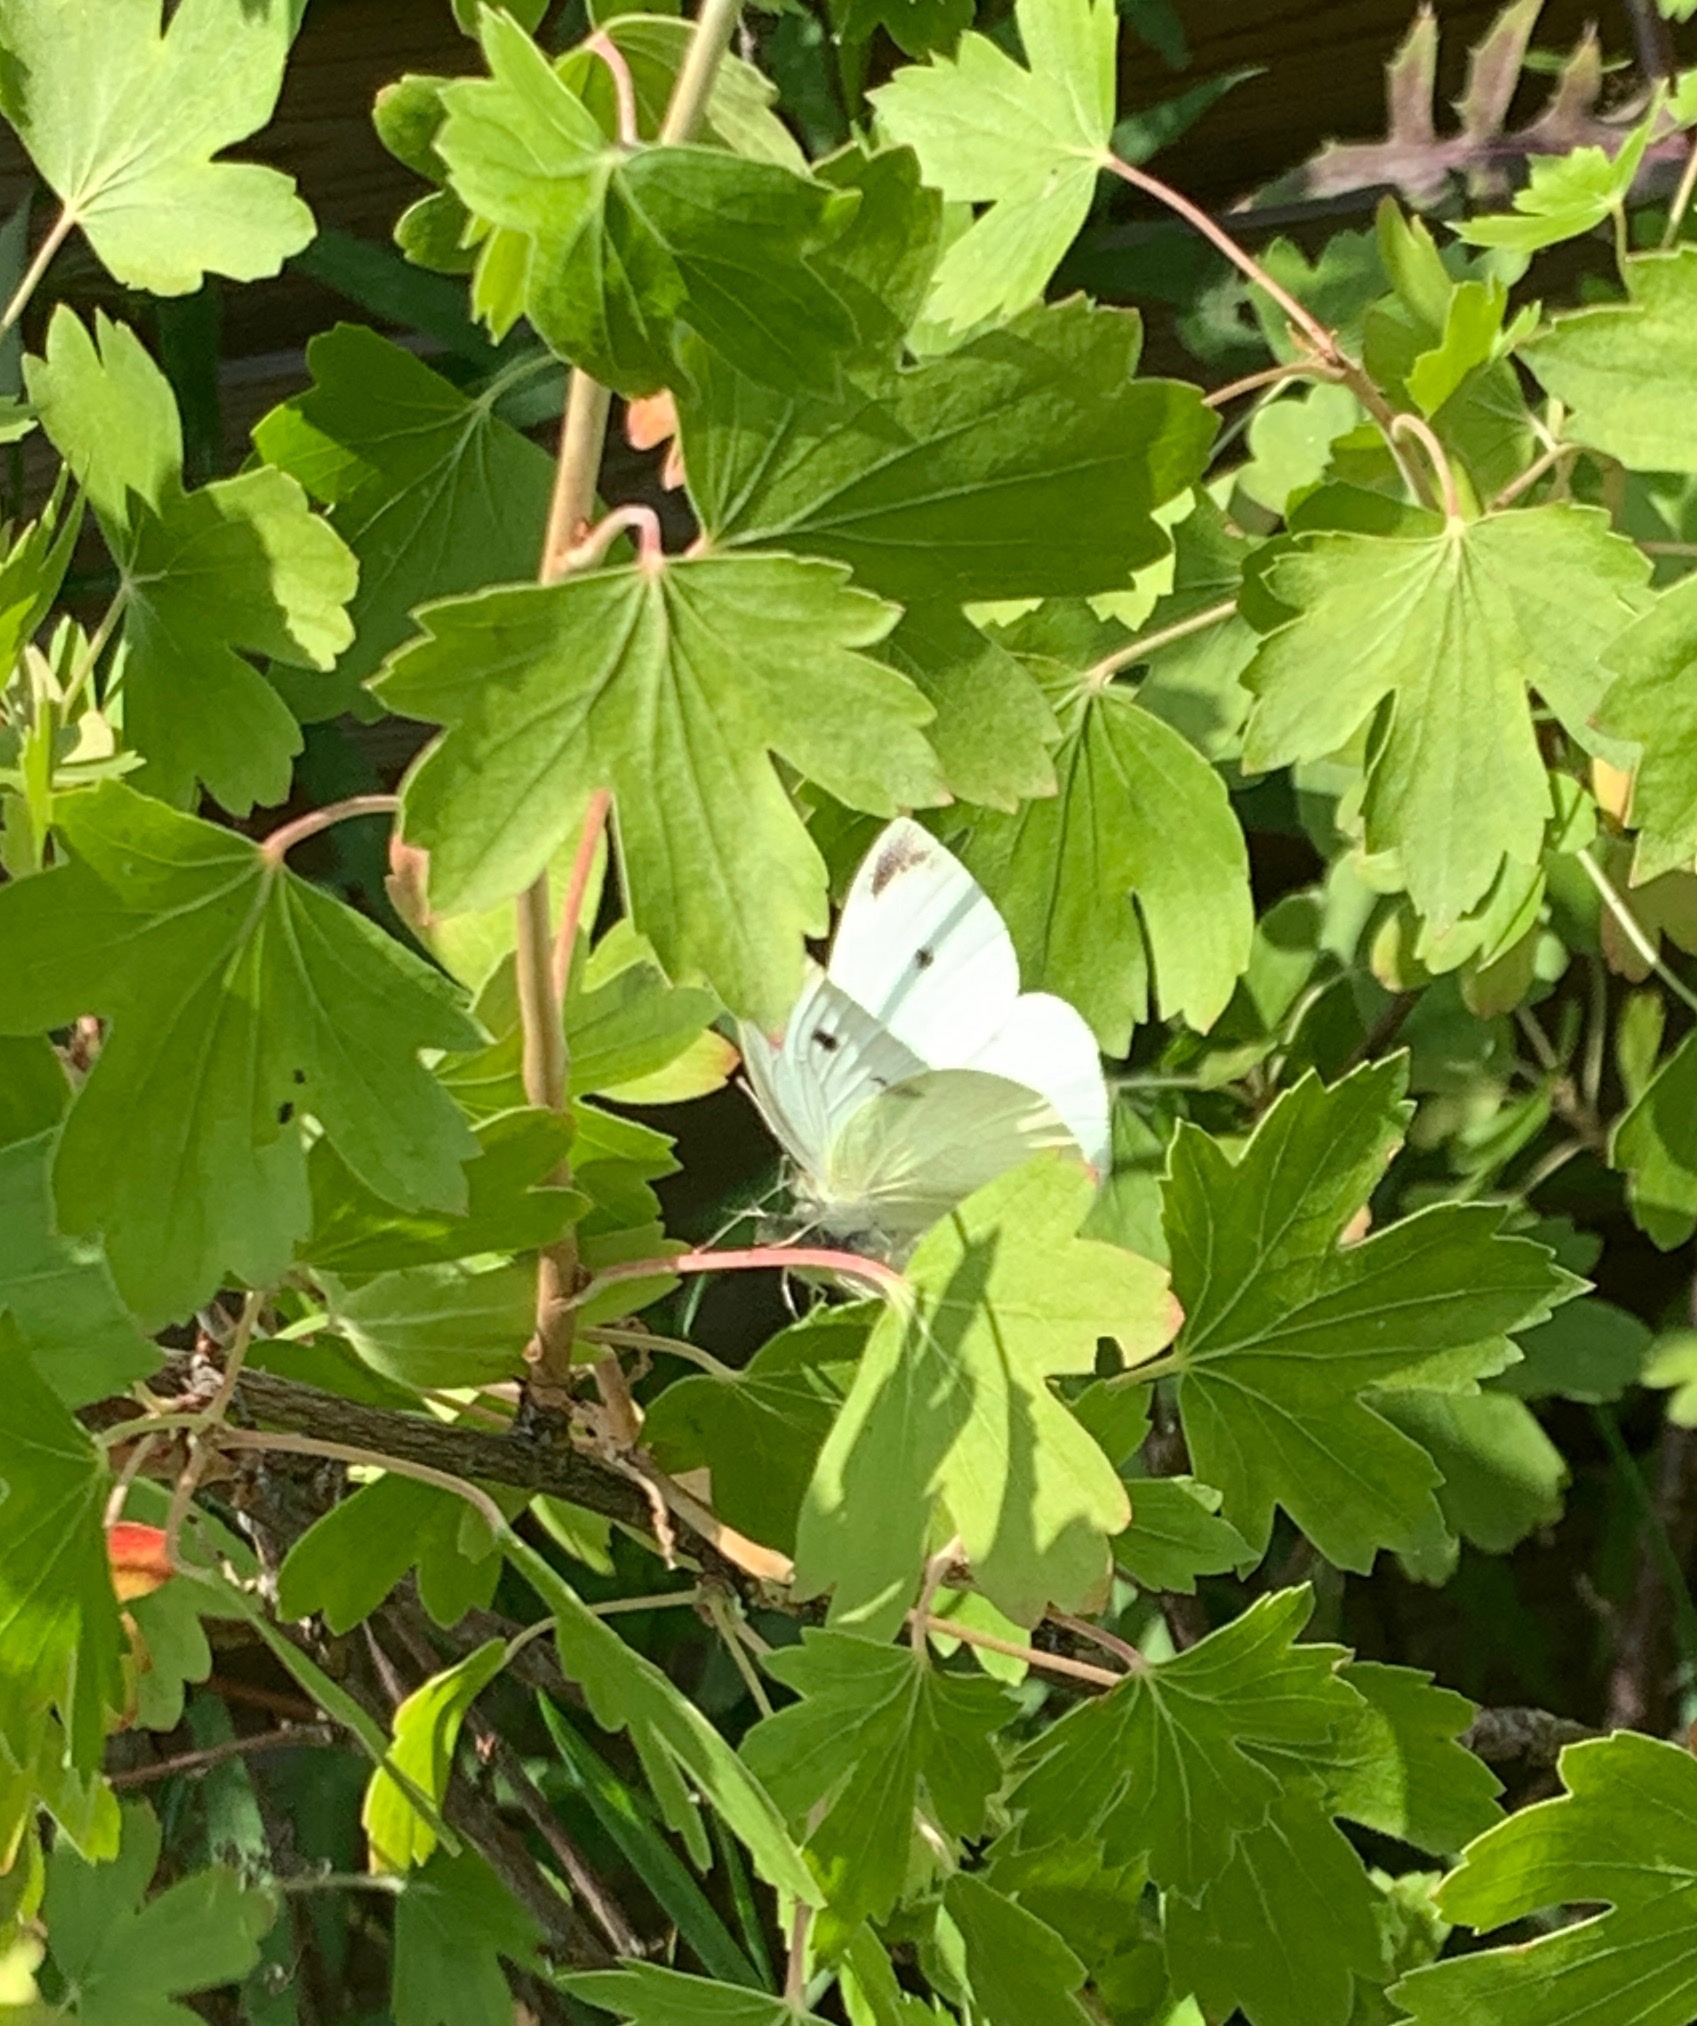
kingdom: Animalia
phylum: Arthropoda
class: Insecta
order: Lepidoptera
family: Pieridae
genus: Pieris
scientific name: Pieris rapae
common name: Small white
